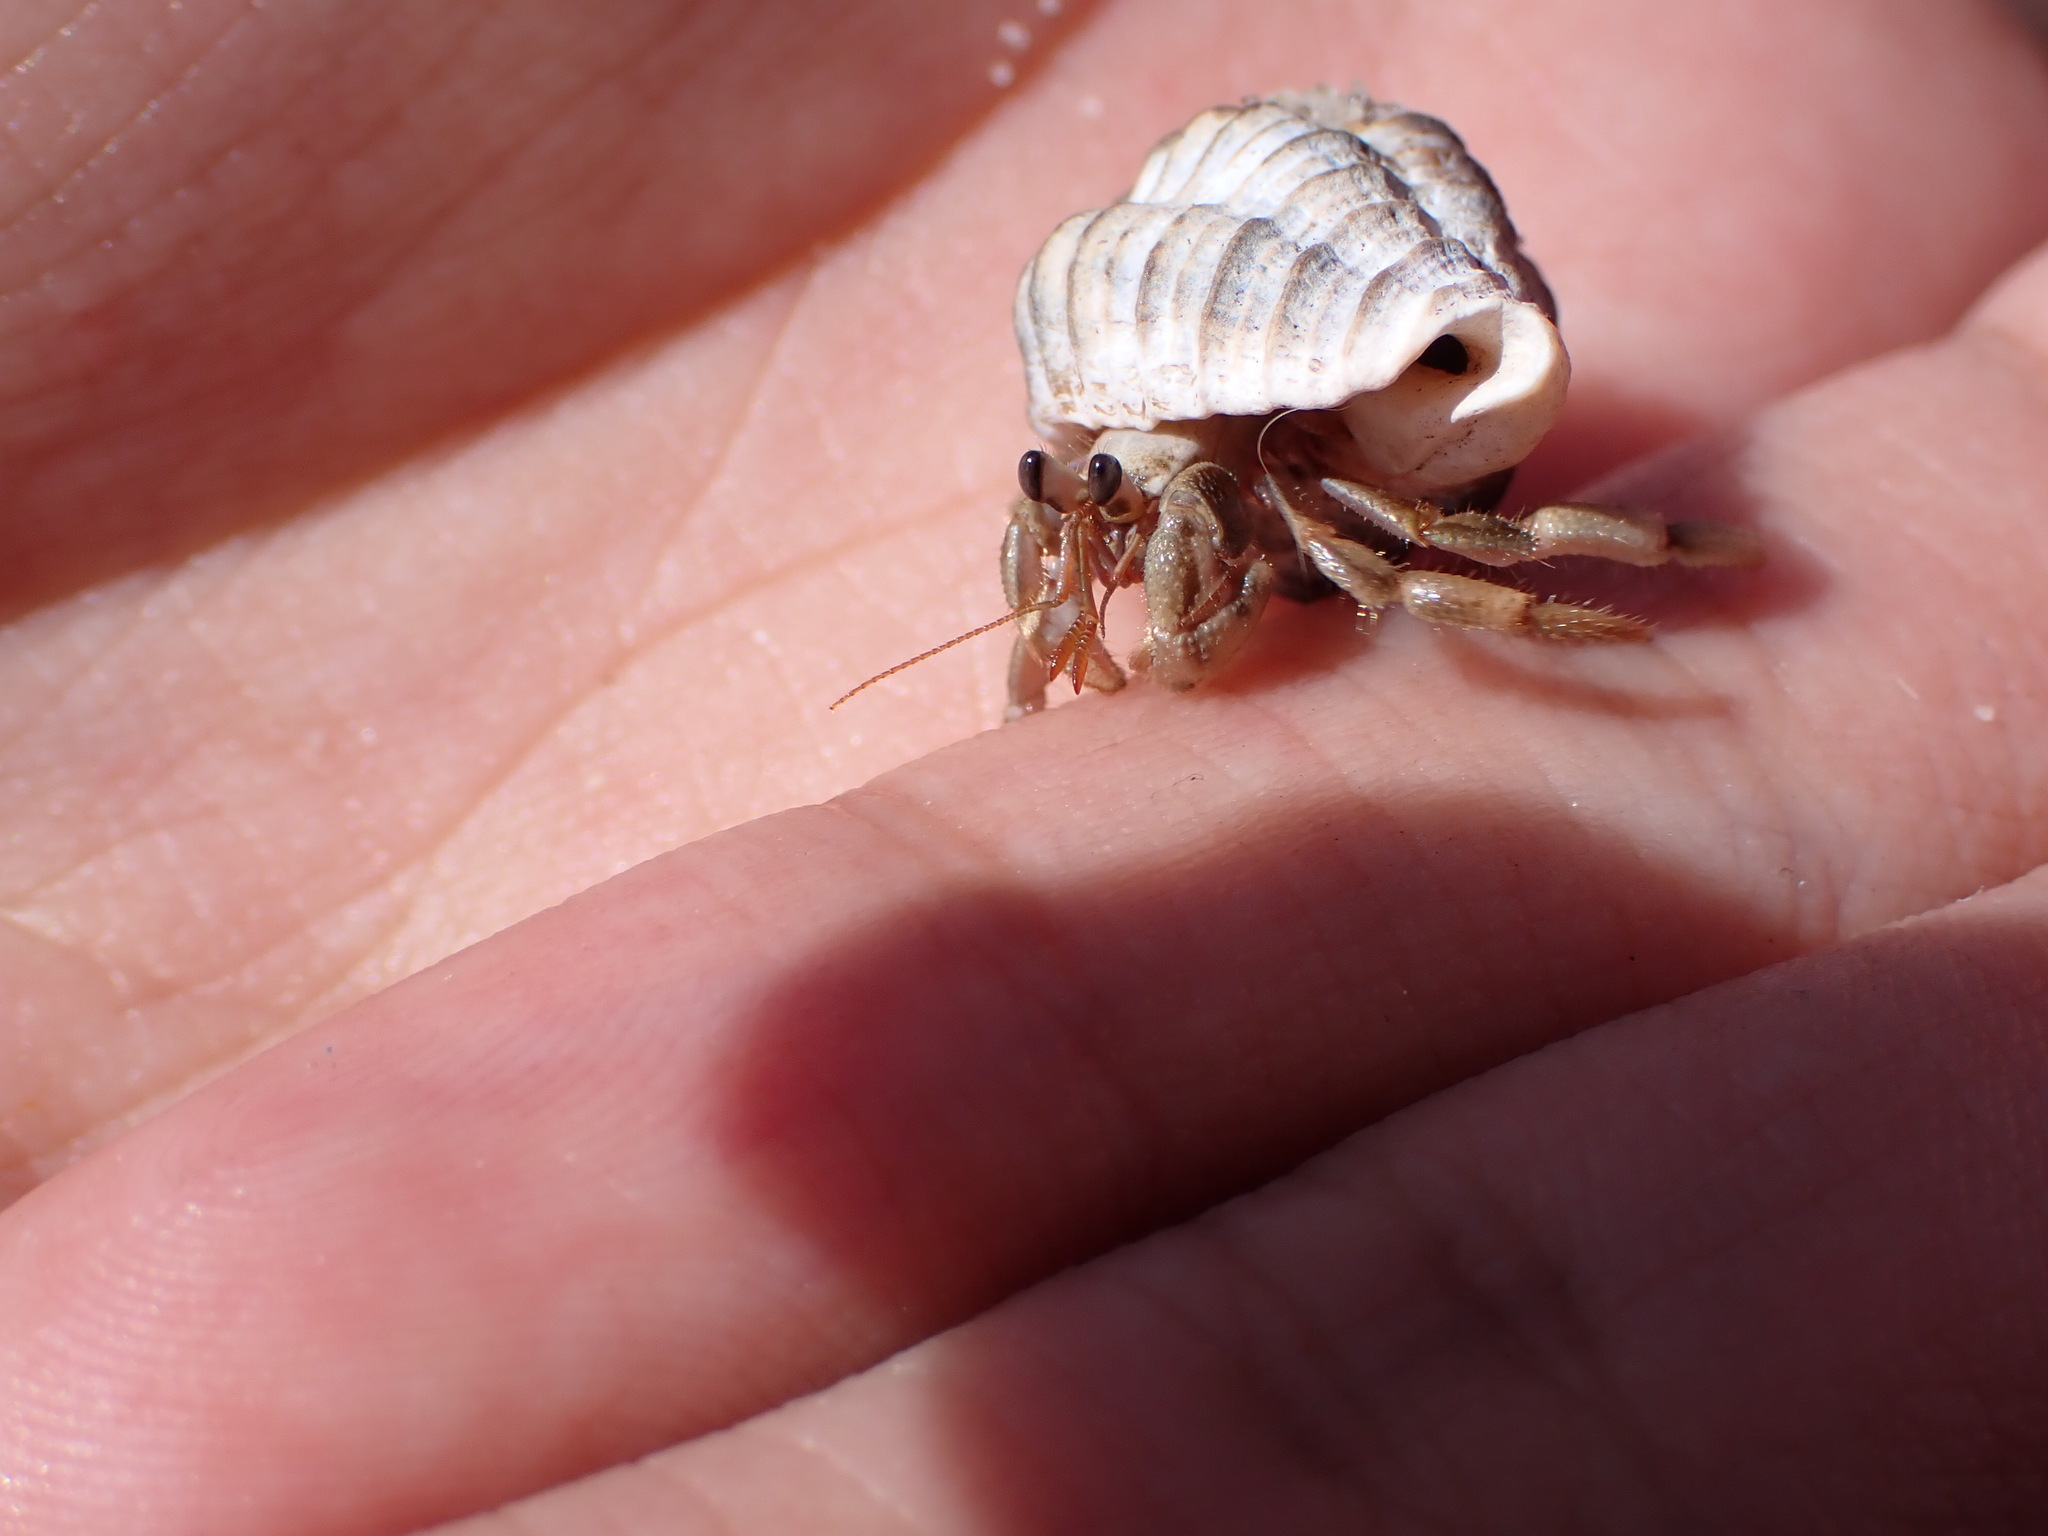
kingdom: Animalia
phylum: Arthropoda
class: Malacostraca
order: Decapoda
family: Coenobitidae
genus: Coenobita
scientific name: Coenobita rugosus
